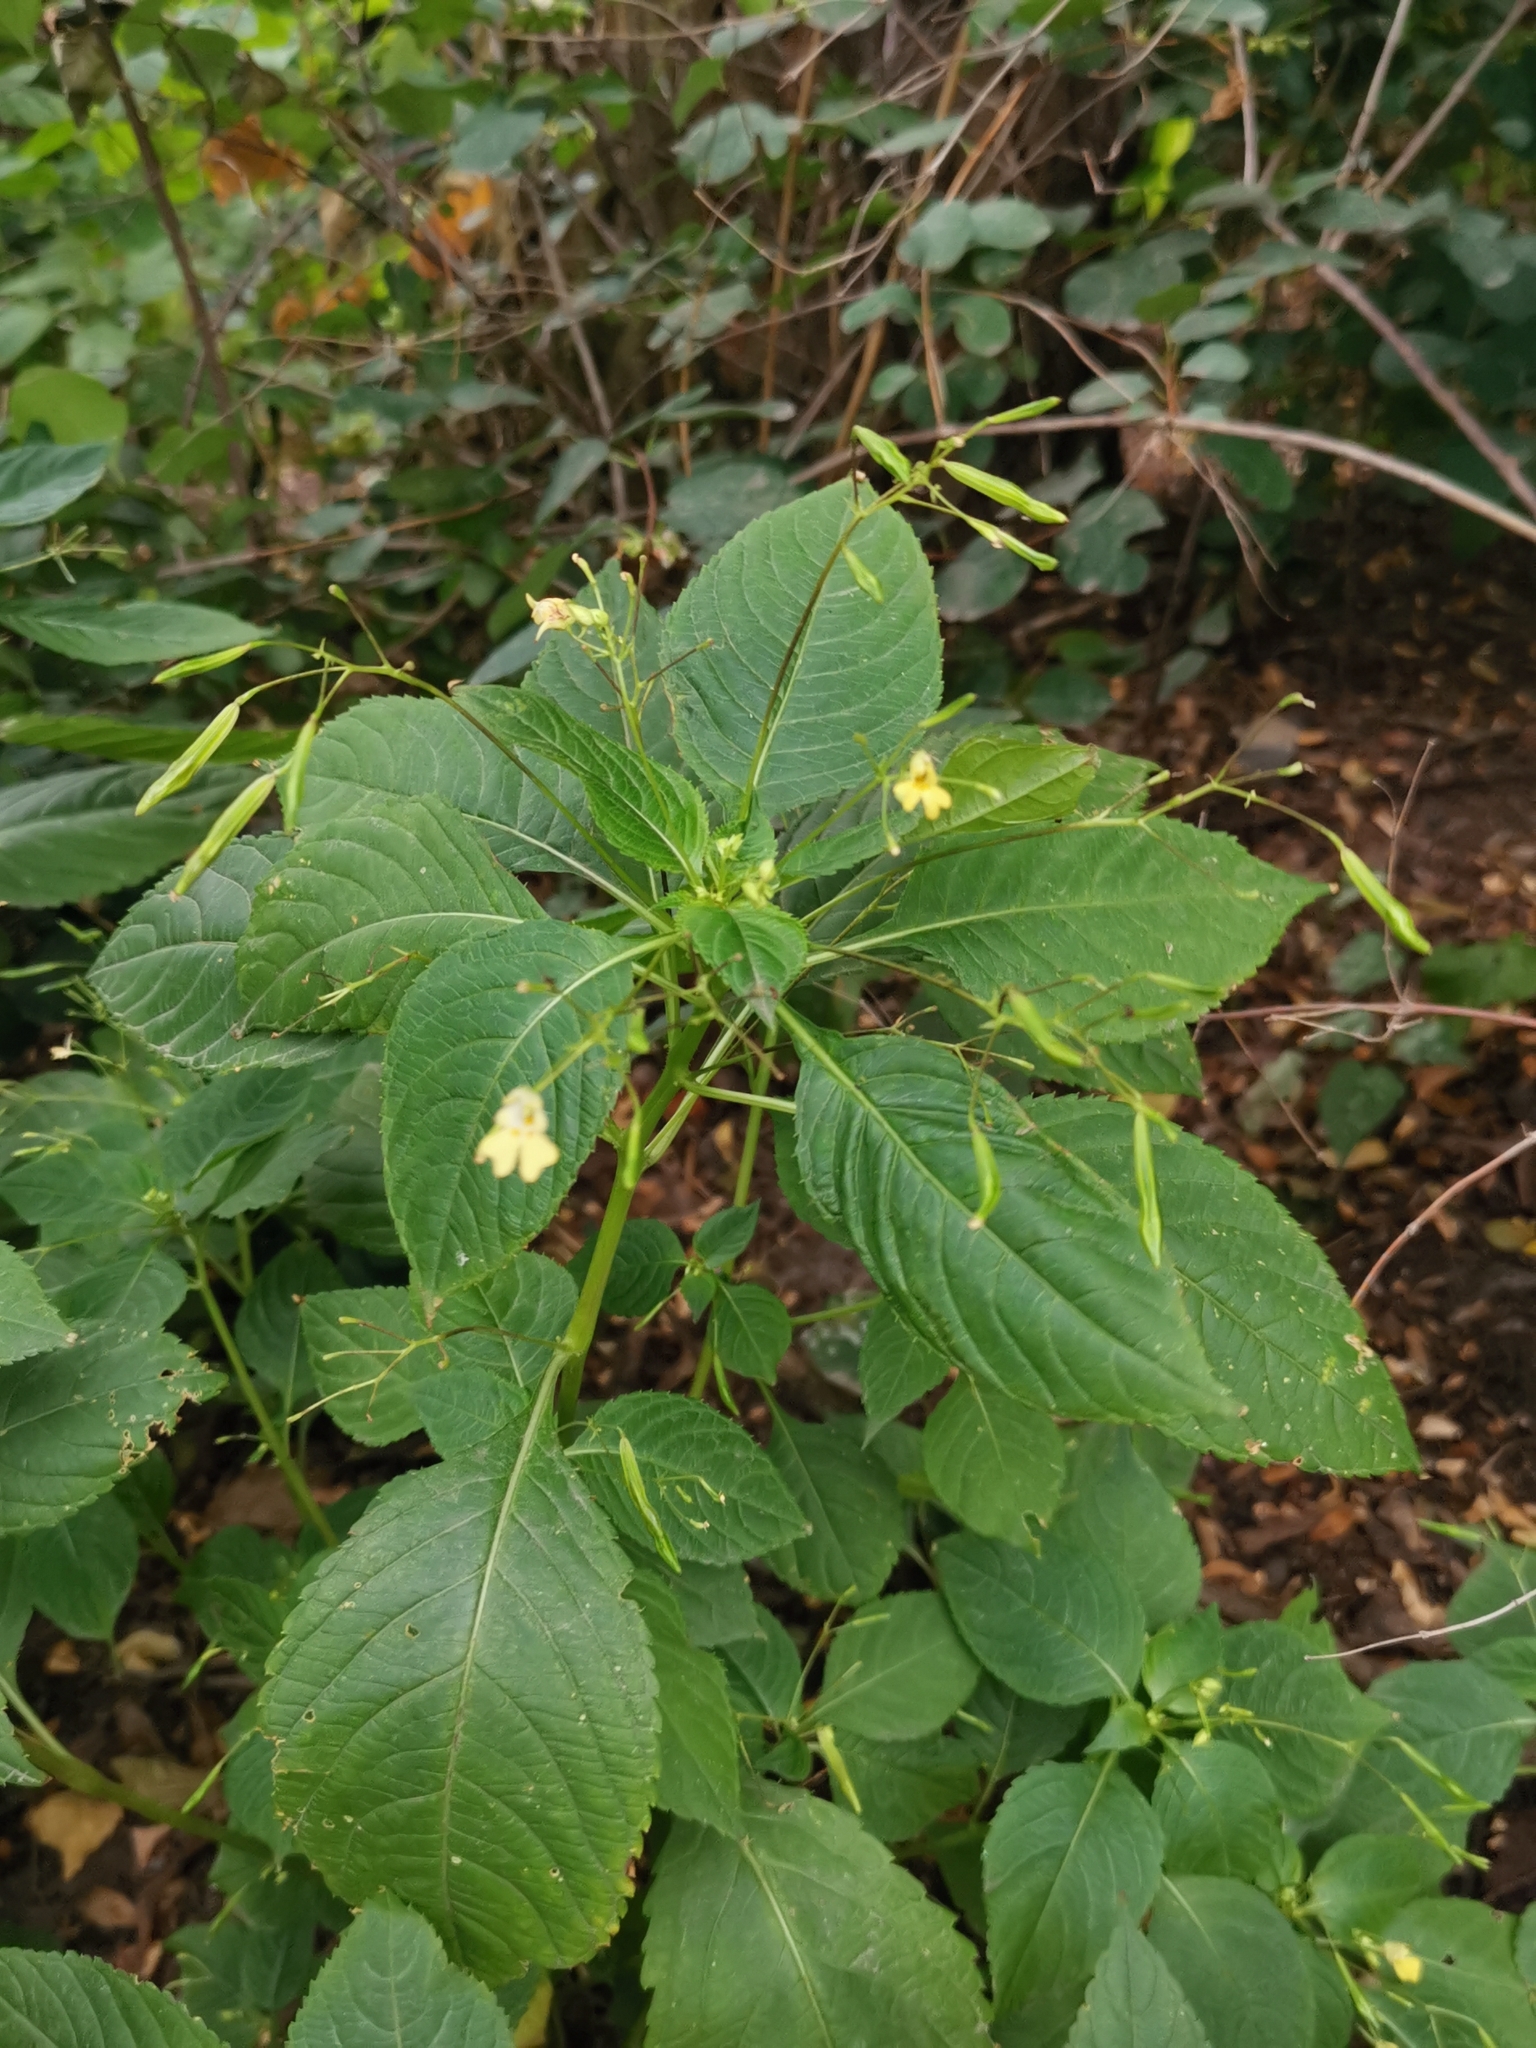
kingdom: Plantae
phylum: Tracheophyta
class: Magnoliopsida
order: Ericales
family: Balsaminaceae
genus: Impatiens
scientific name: Impatiens parviflora
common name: Small balsam
